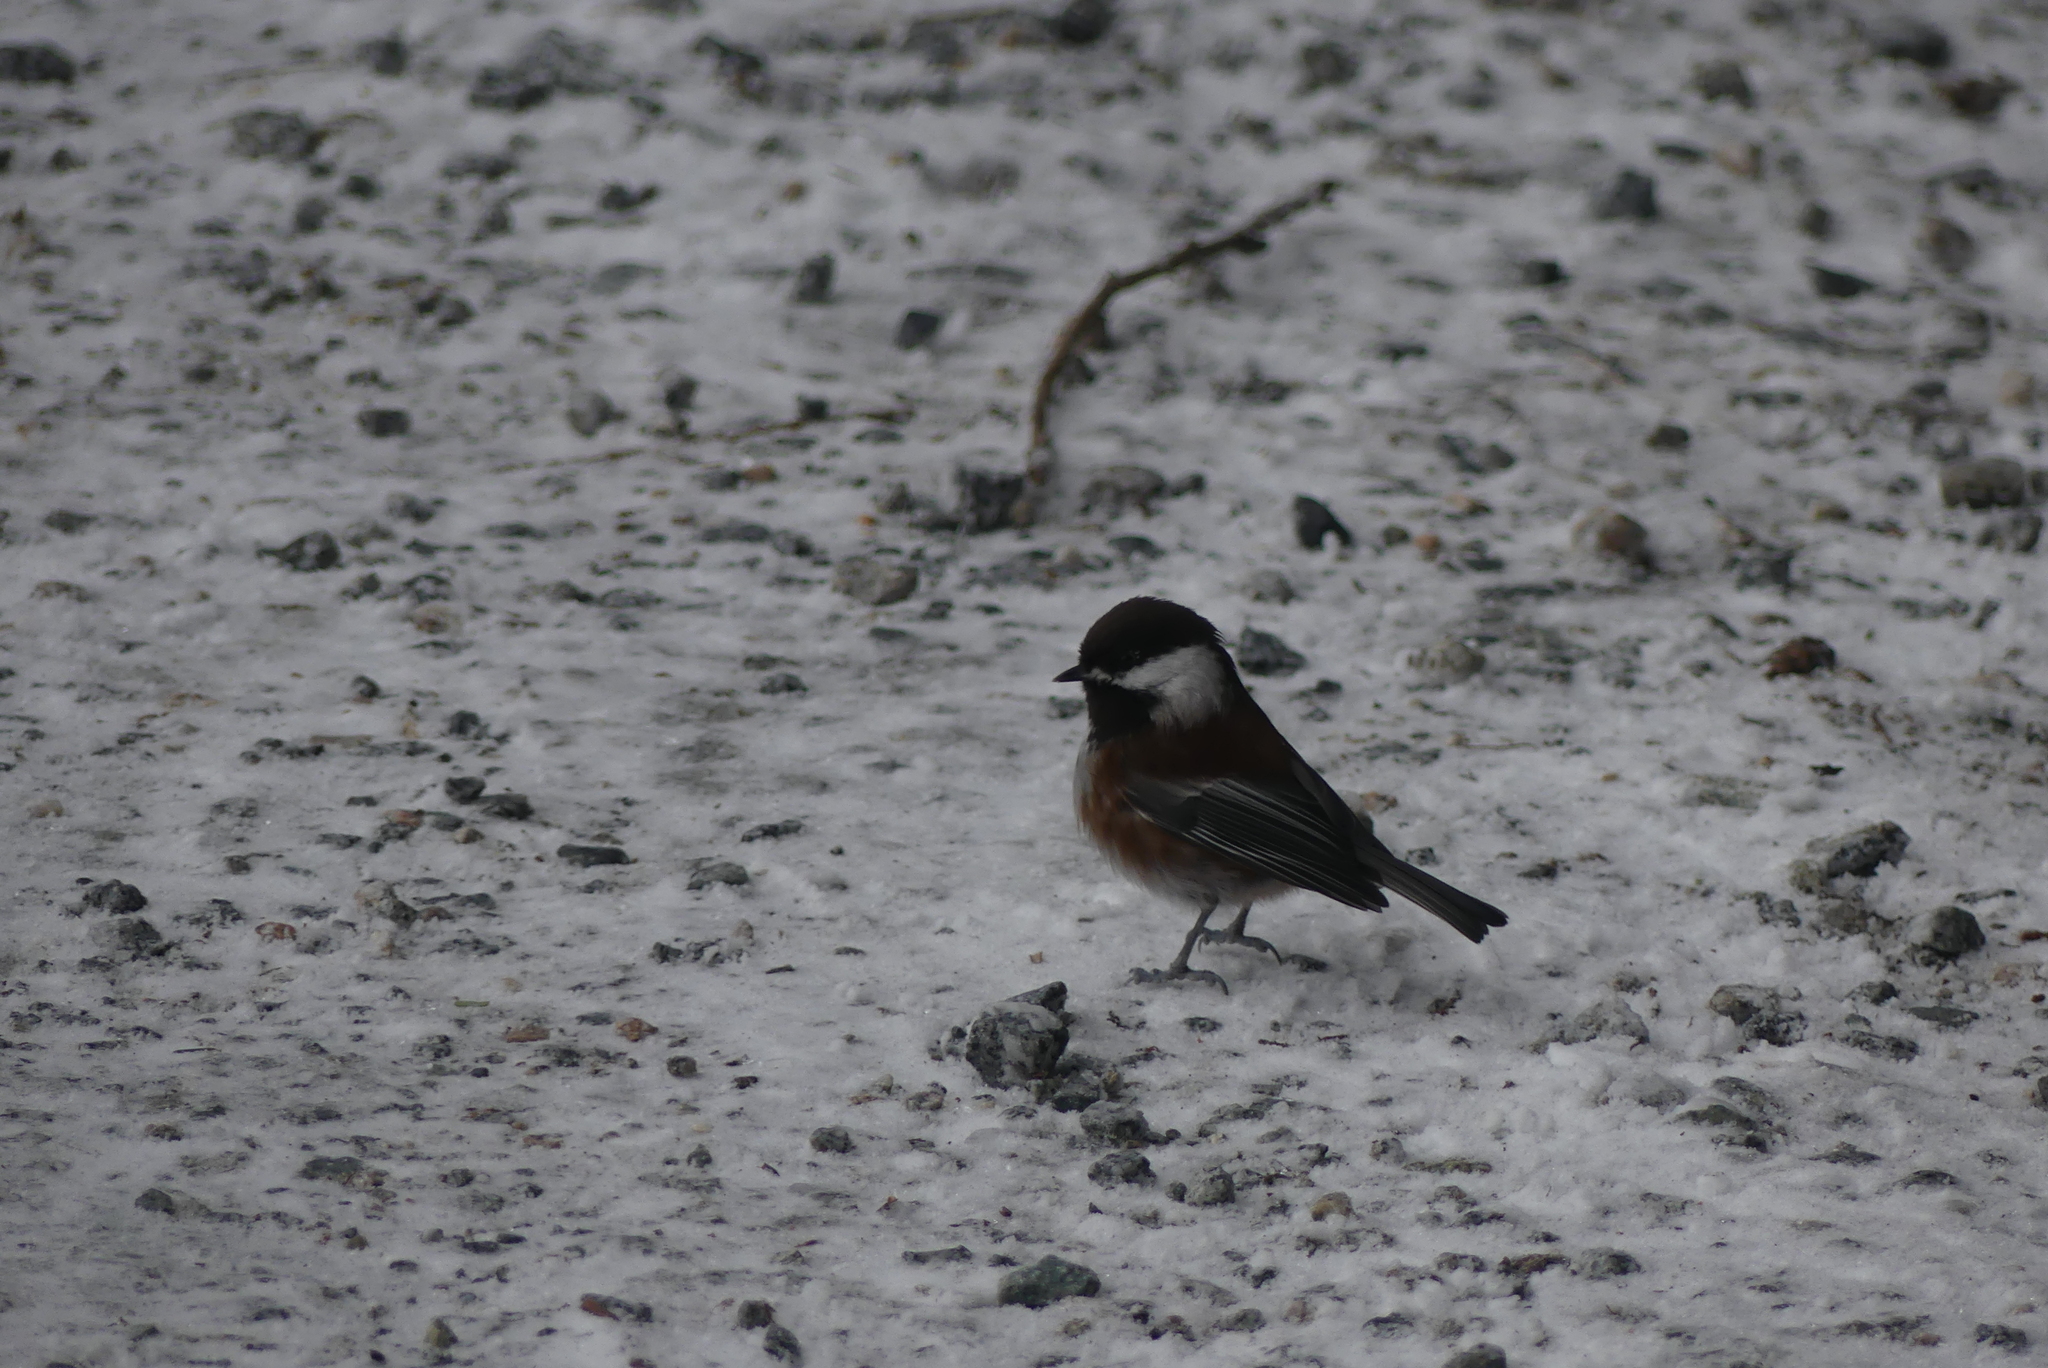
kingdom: Animalia
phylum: Chordata
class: Aves
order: Passeriformes
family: Paridae
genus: Poecile
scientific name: Poecile rufescens
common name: Chestnut-backed chickadee
